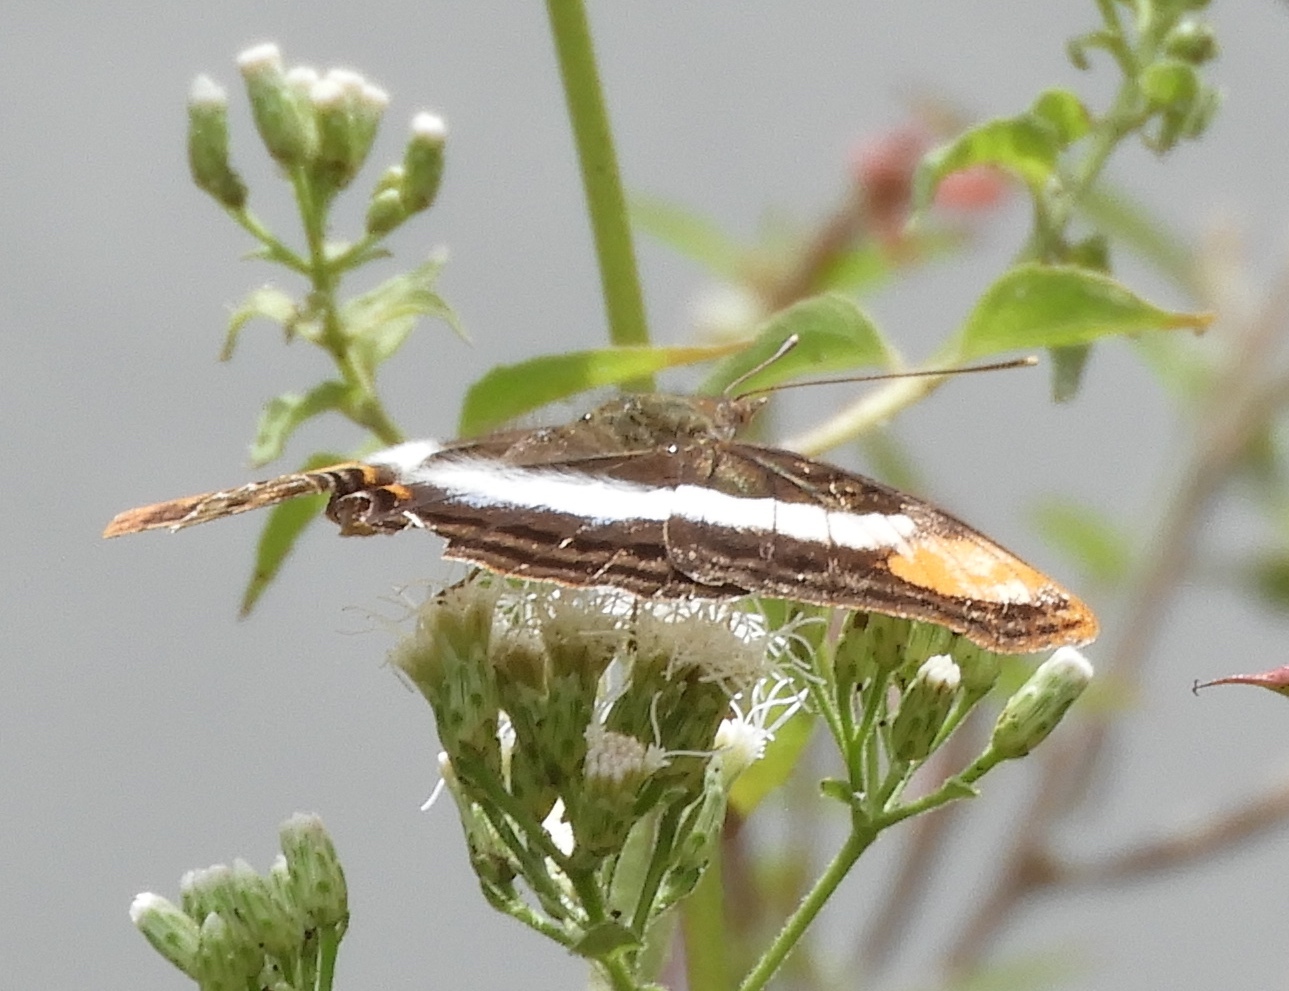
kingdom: Animalia
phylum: Arthropoda
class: Insecta
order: Lepidoptera
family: Nymphalidae
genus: Doxocopa
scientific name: Doxocopa laure
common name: Silver emperor
